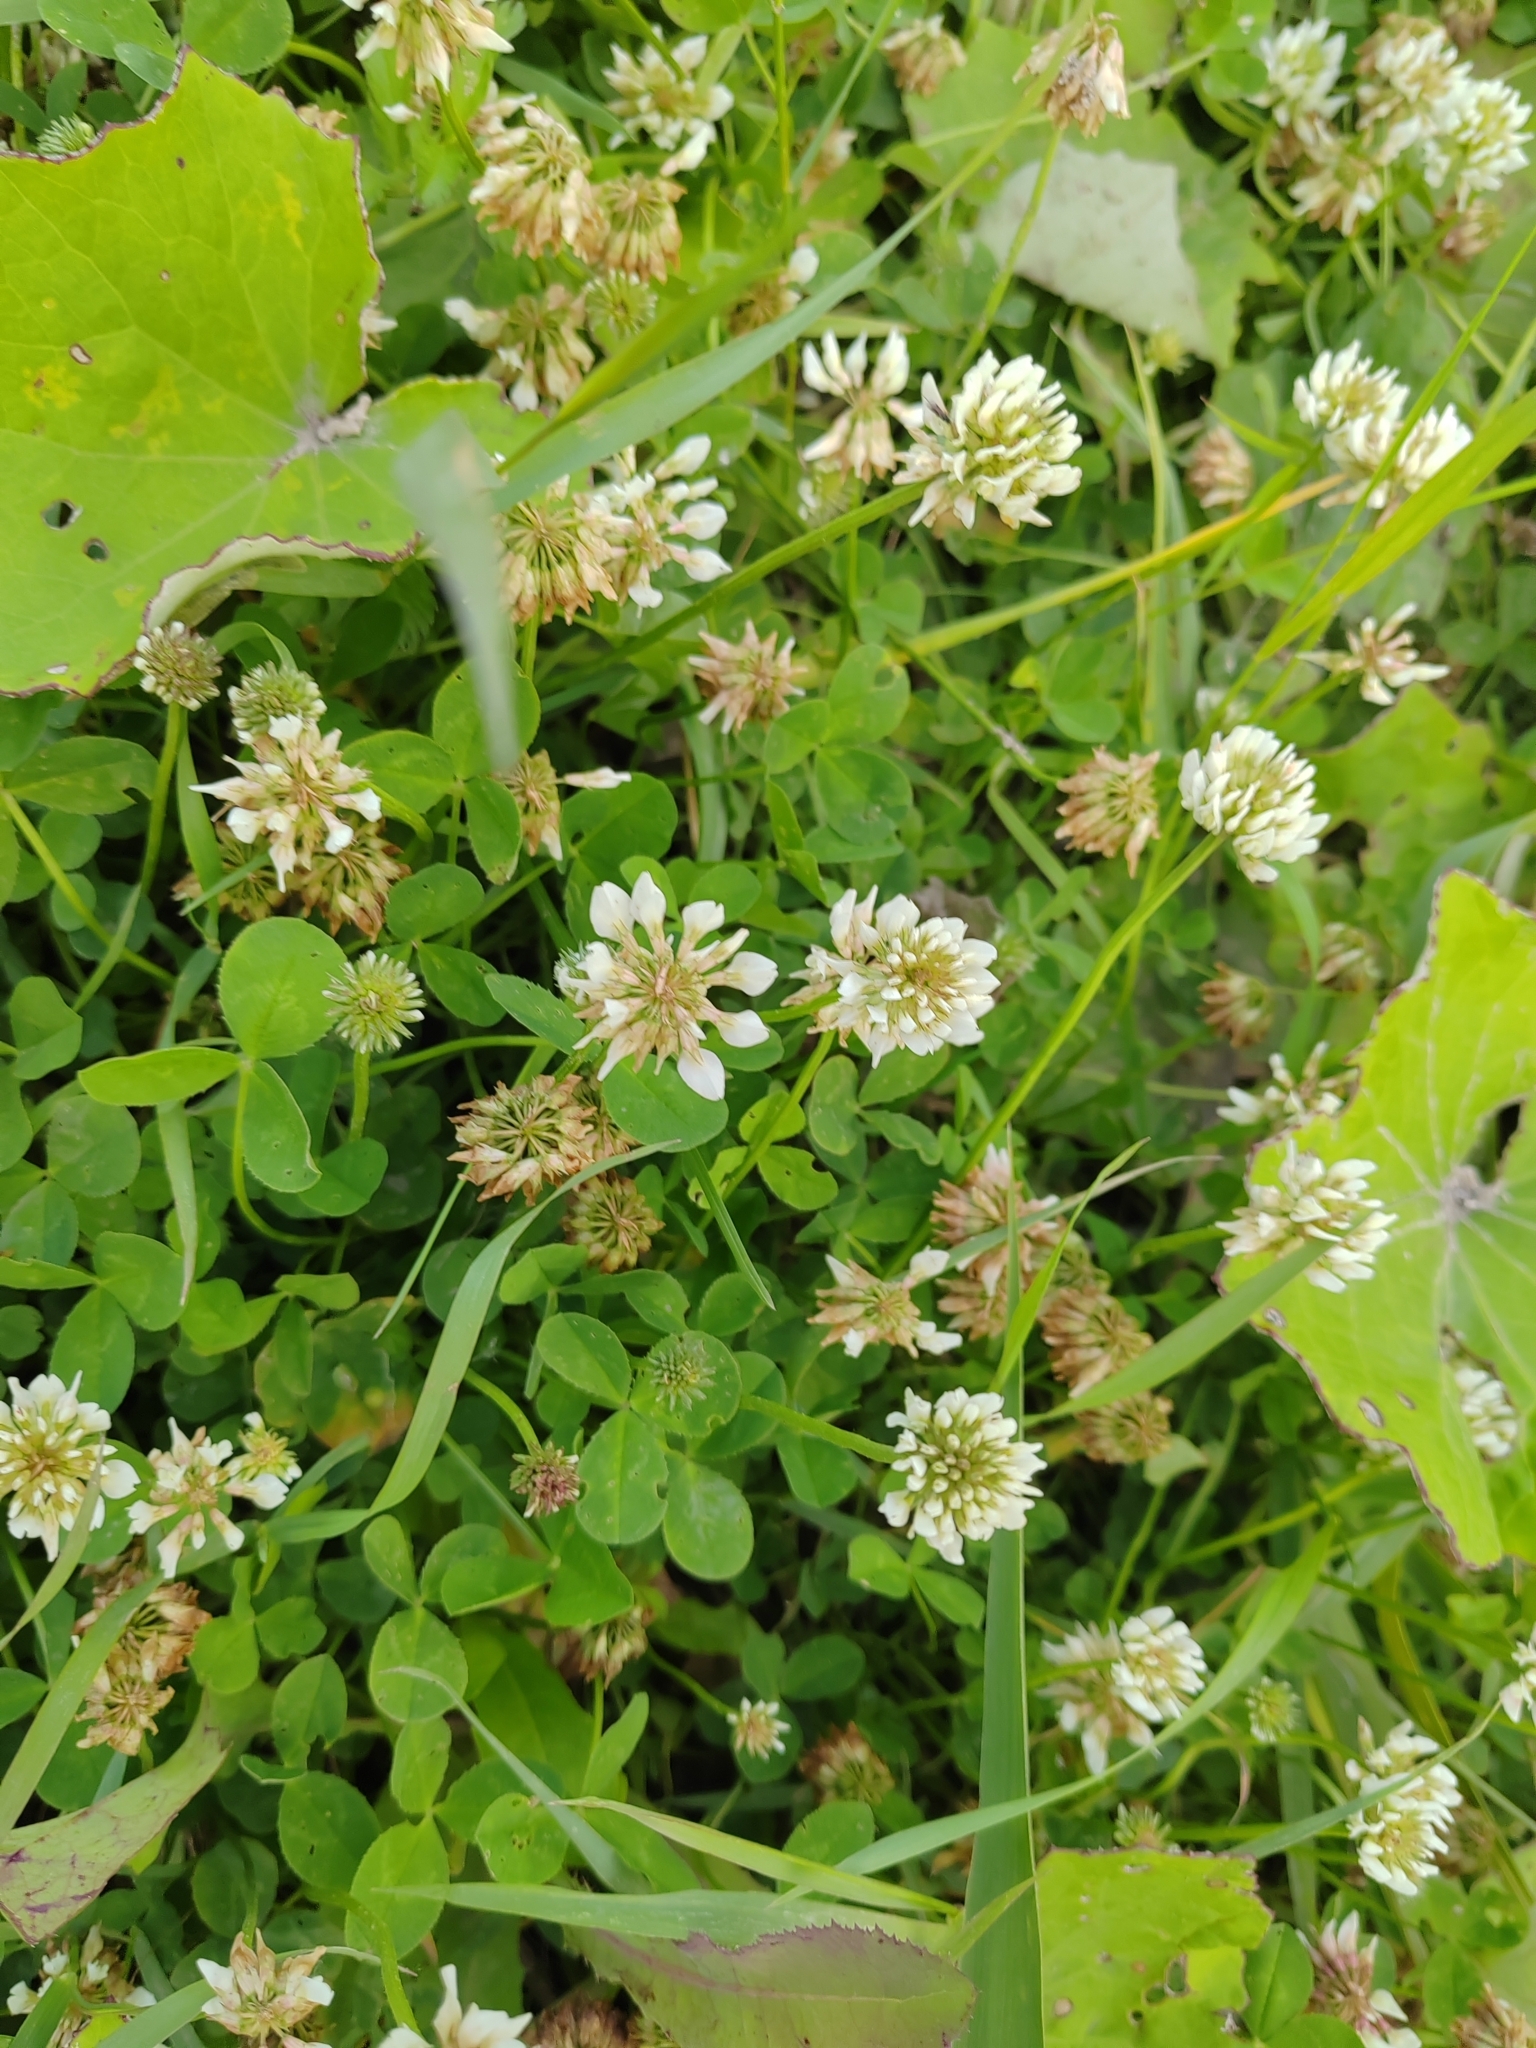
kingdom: Plantae
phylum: Tracheophyta
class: Magnoliopsida
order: Fabales
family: Fabaceae
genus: Trifolium
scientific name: Trifolium repens
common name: White clover
